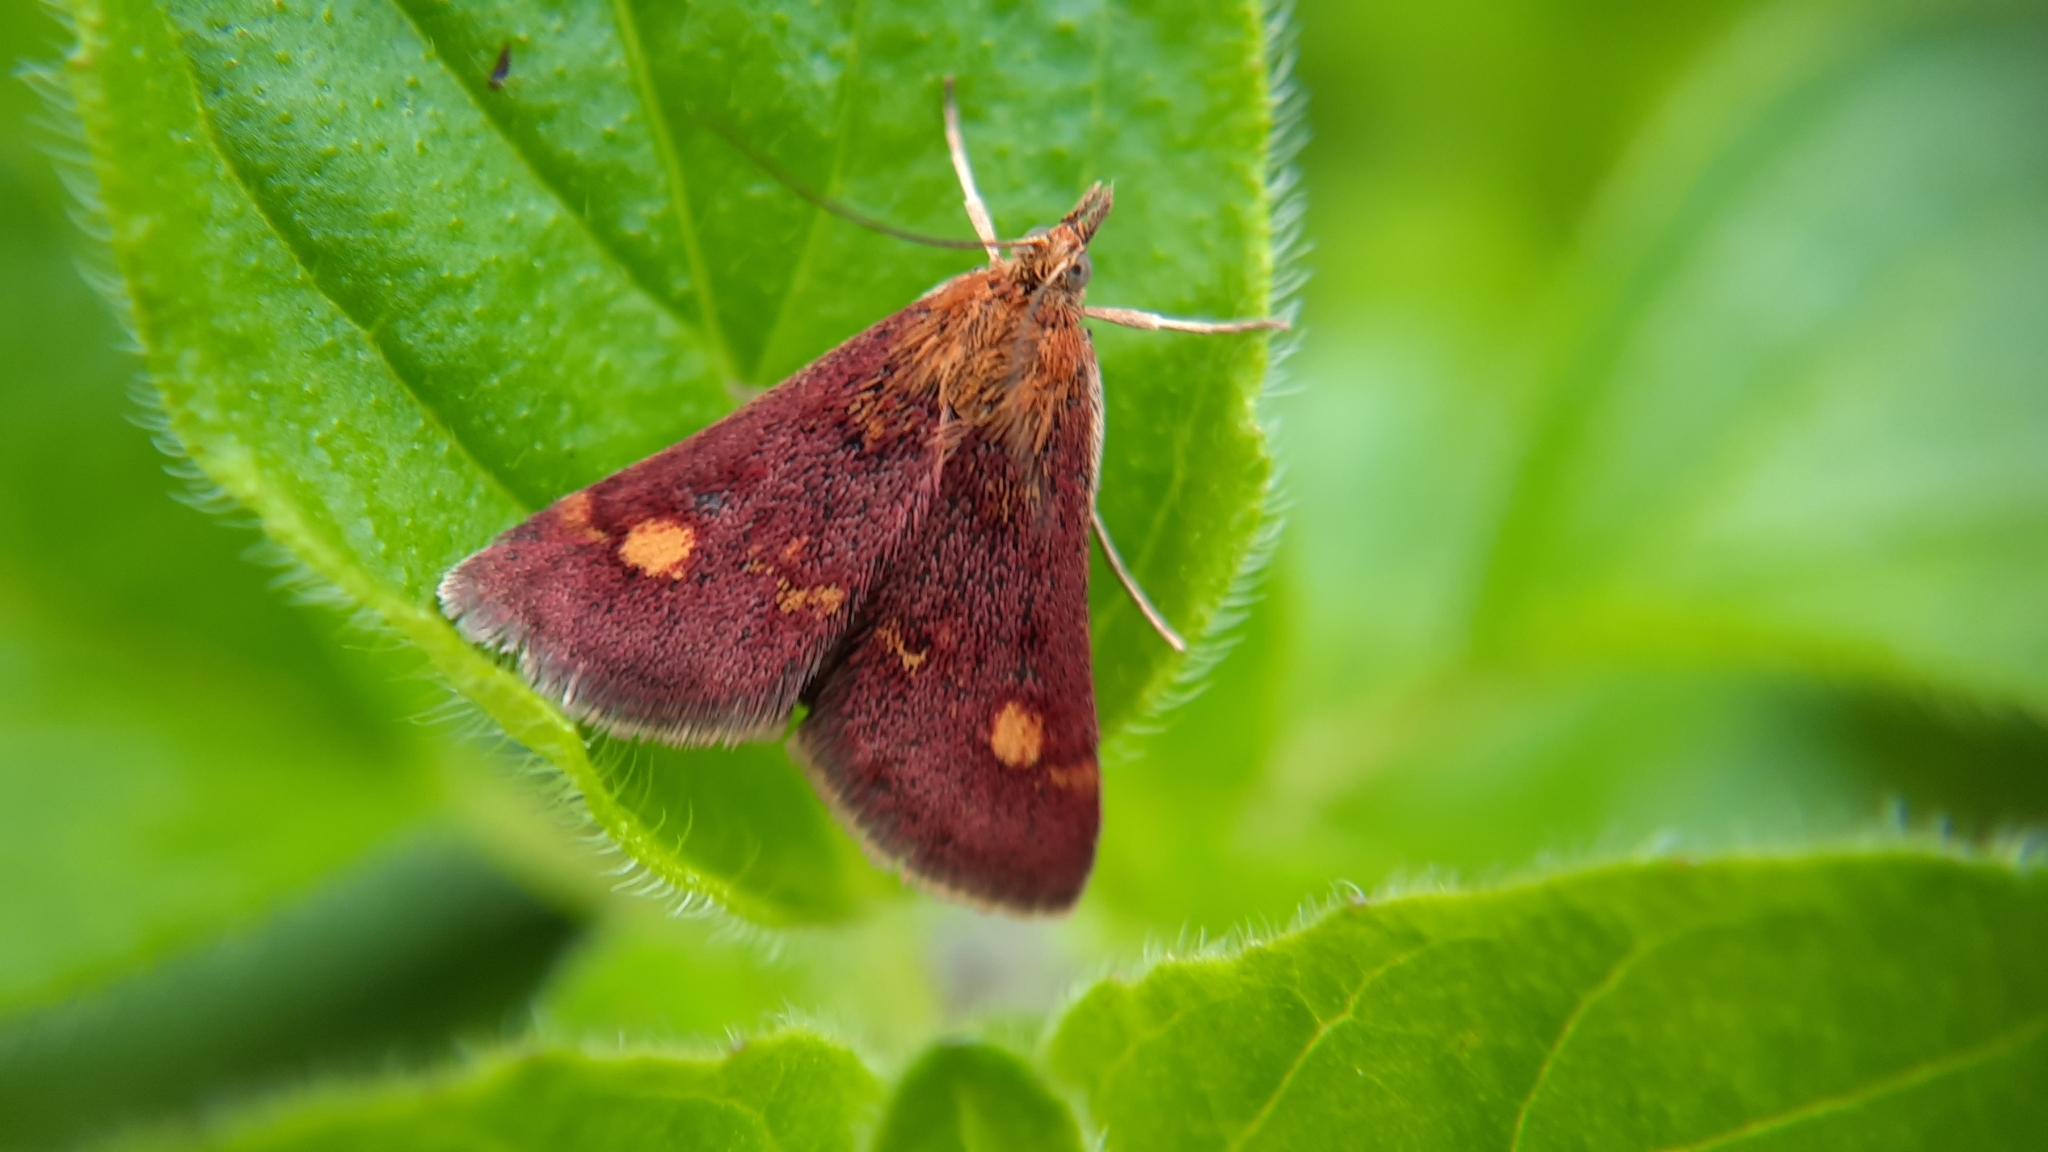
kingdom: Animalia
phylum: Arthropoda
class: Insecta
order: Lepidoptera
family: Crambidae
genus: Pyrausta
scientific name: Pyrausta aurata
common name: Small purple & gold
